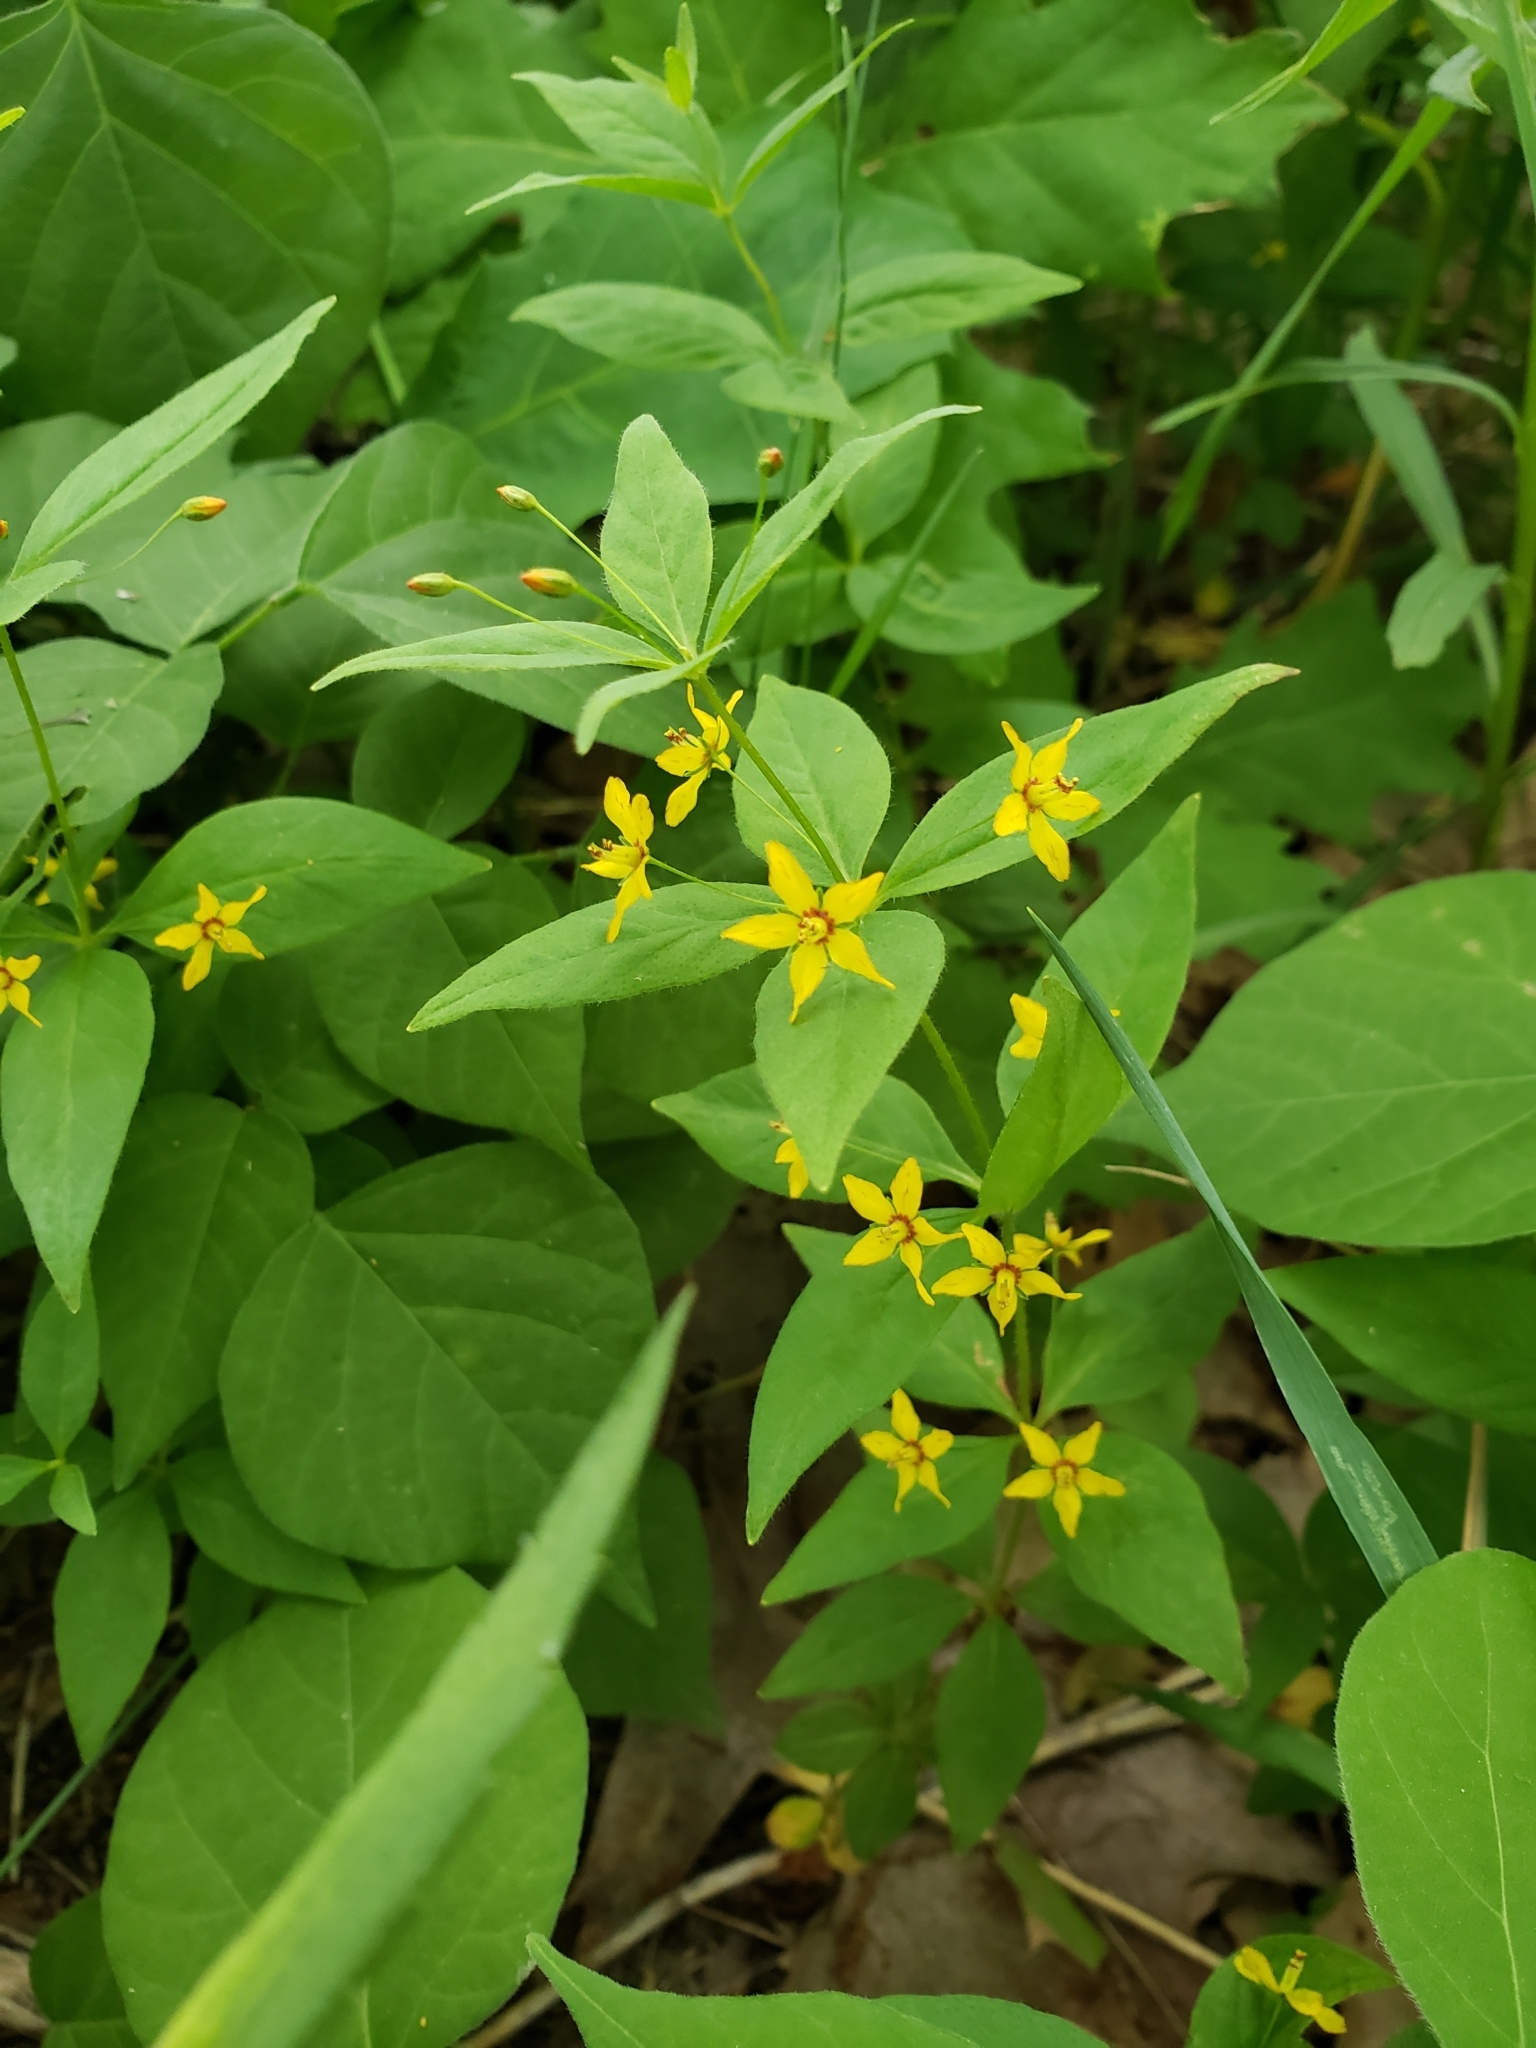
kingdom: Plantae
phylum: Tracheophyta
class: Magnoliopsida
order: Ericales
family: Primulaceae
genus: Lysimachia
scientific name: Lysimachia quadrifolia
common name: Whorled loosestrife
